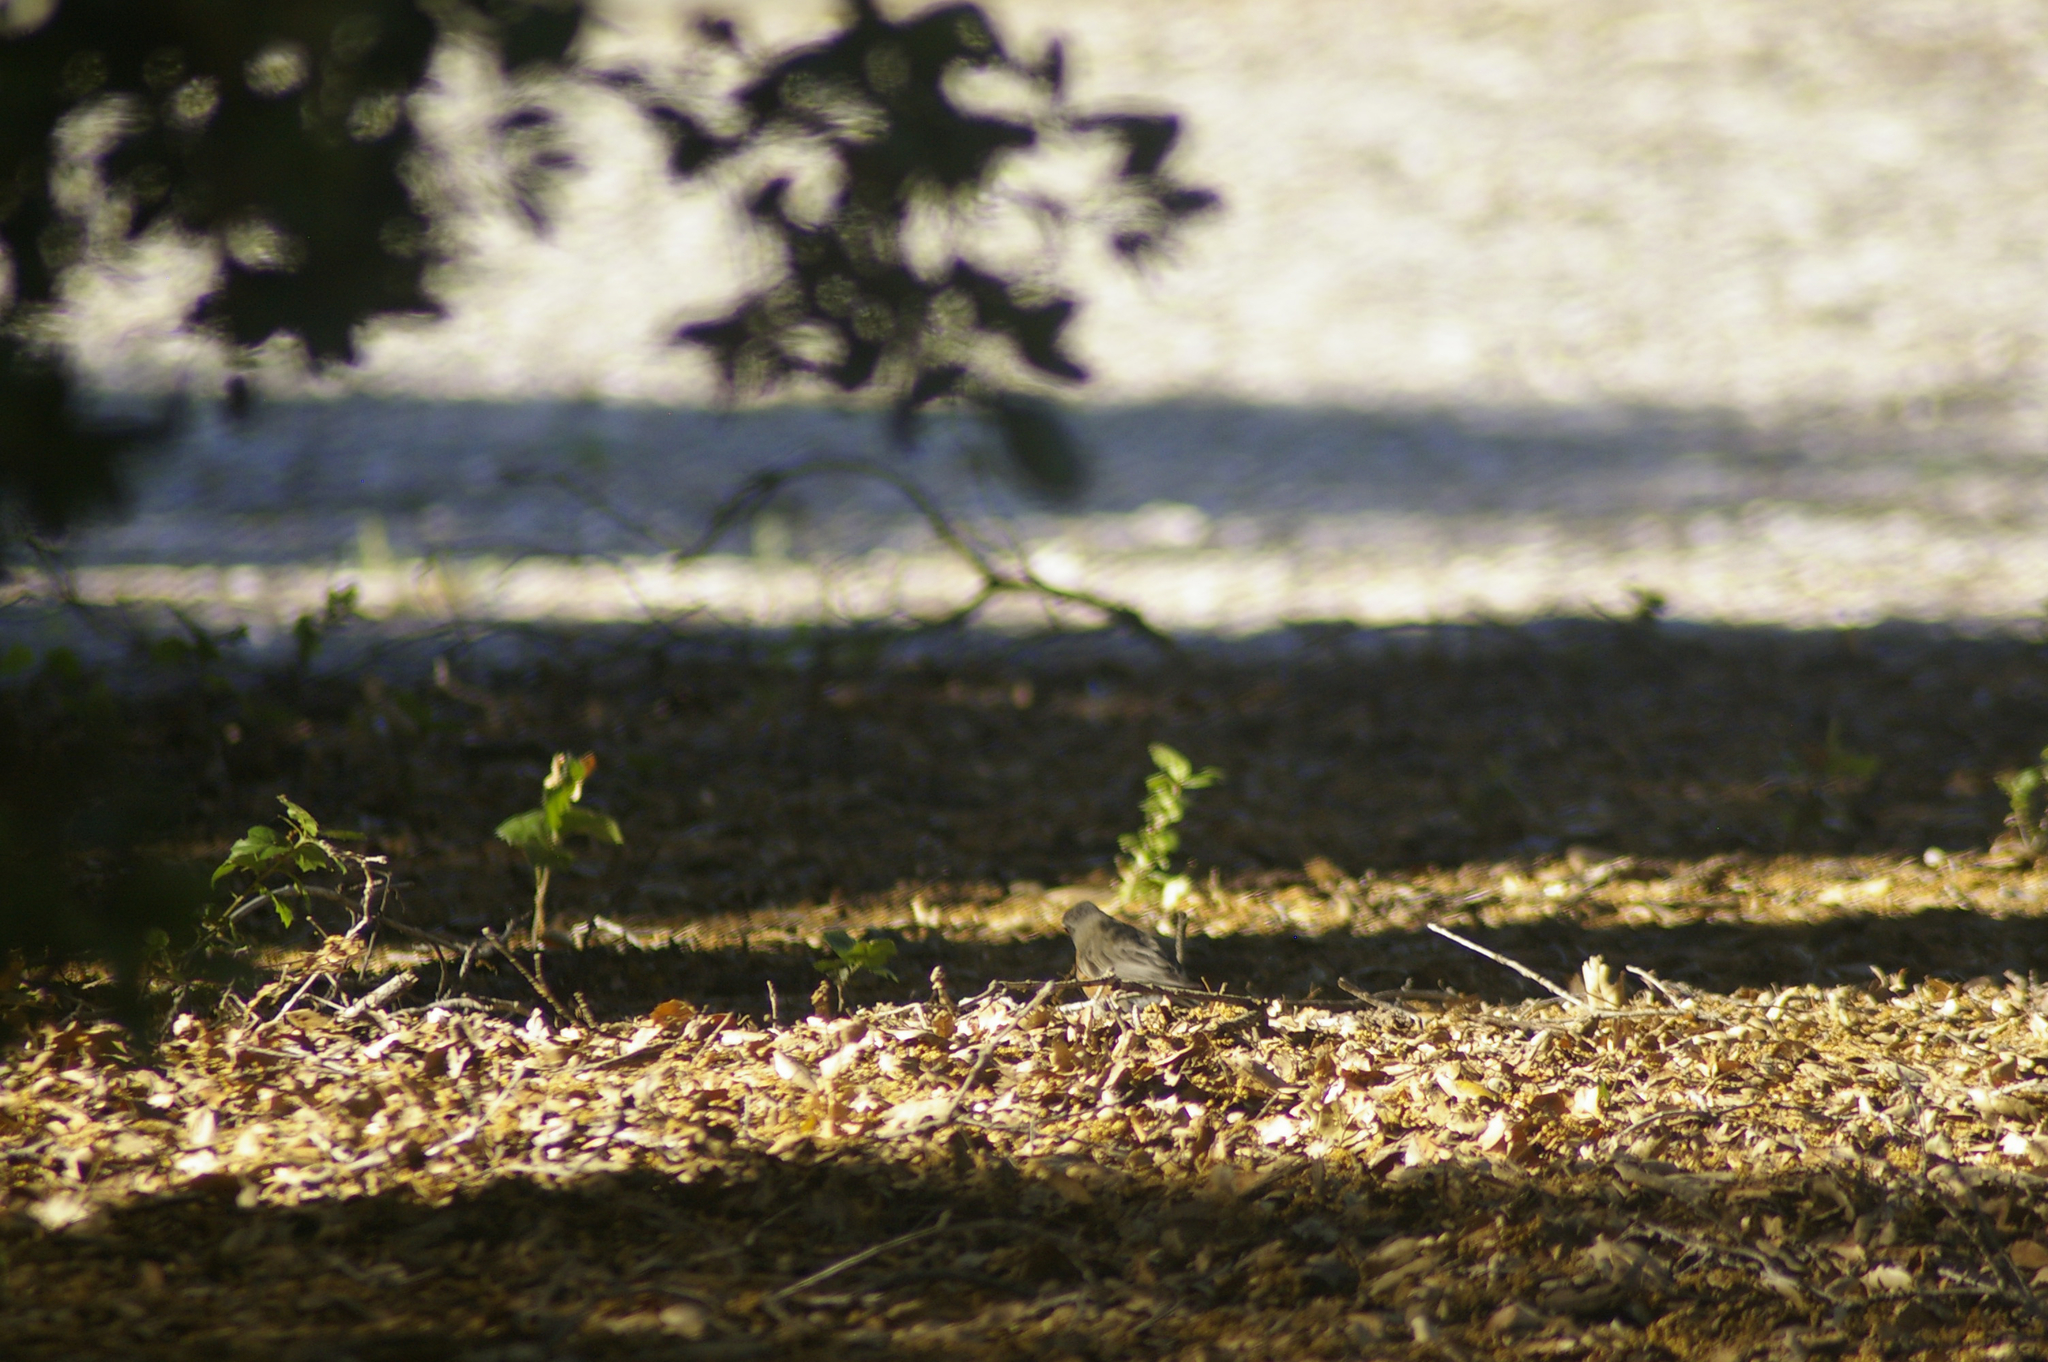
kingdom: Animalia
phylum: Chordata
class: Aves
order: Passeriformes
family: Turdidae
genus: Turdus
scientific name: Turdus migratorius
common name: American robin
